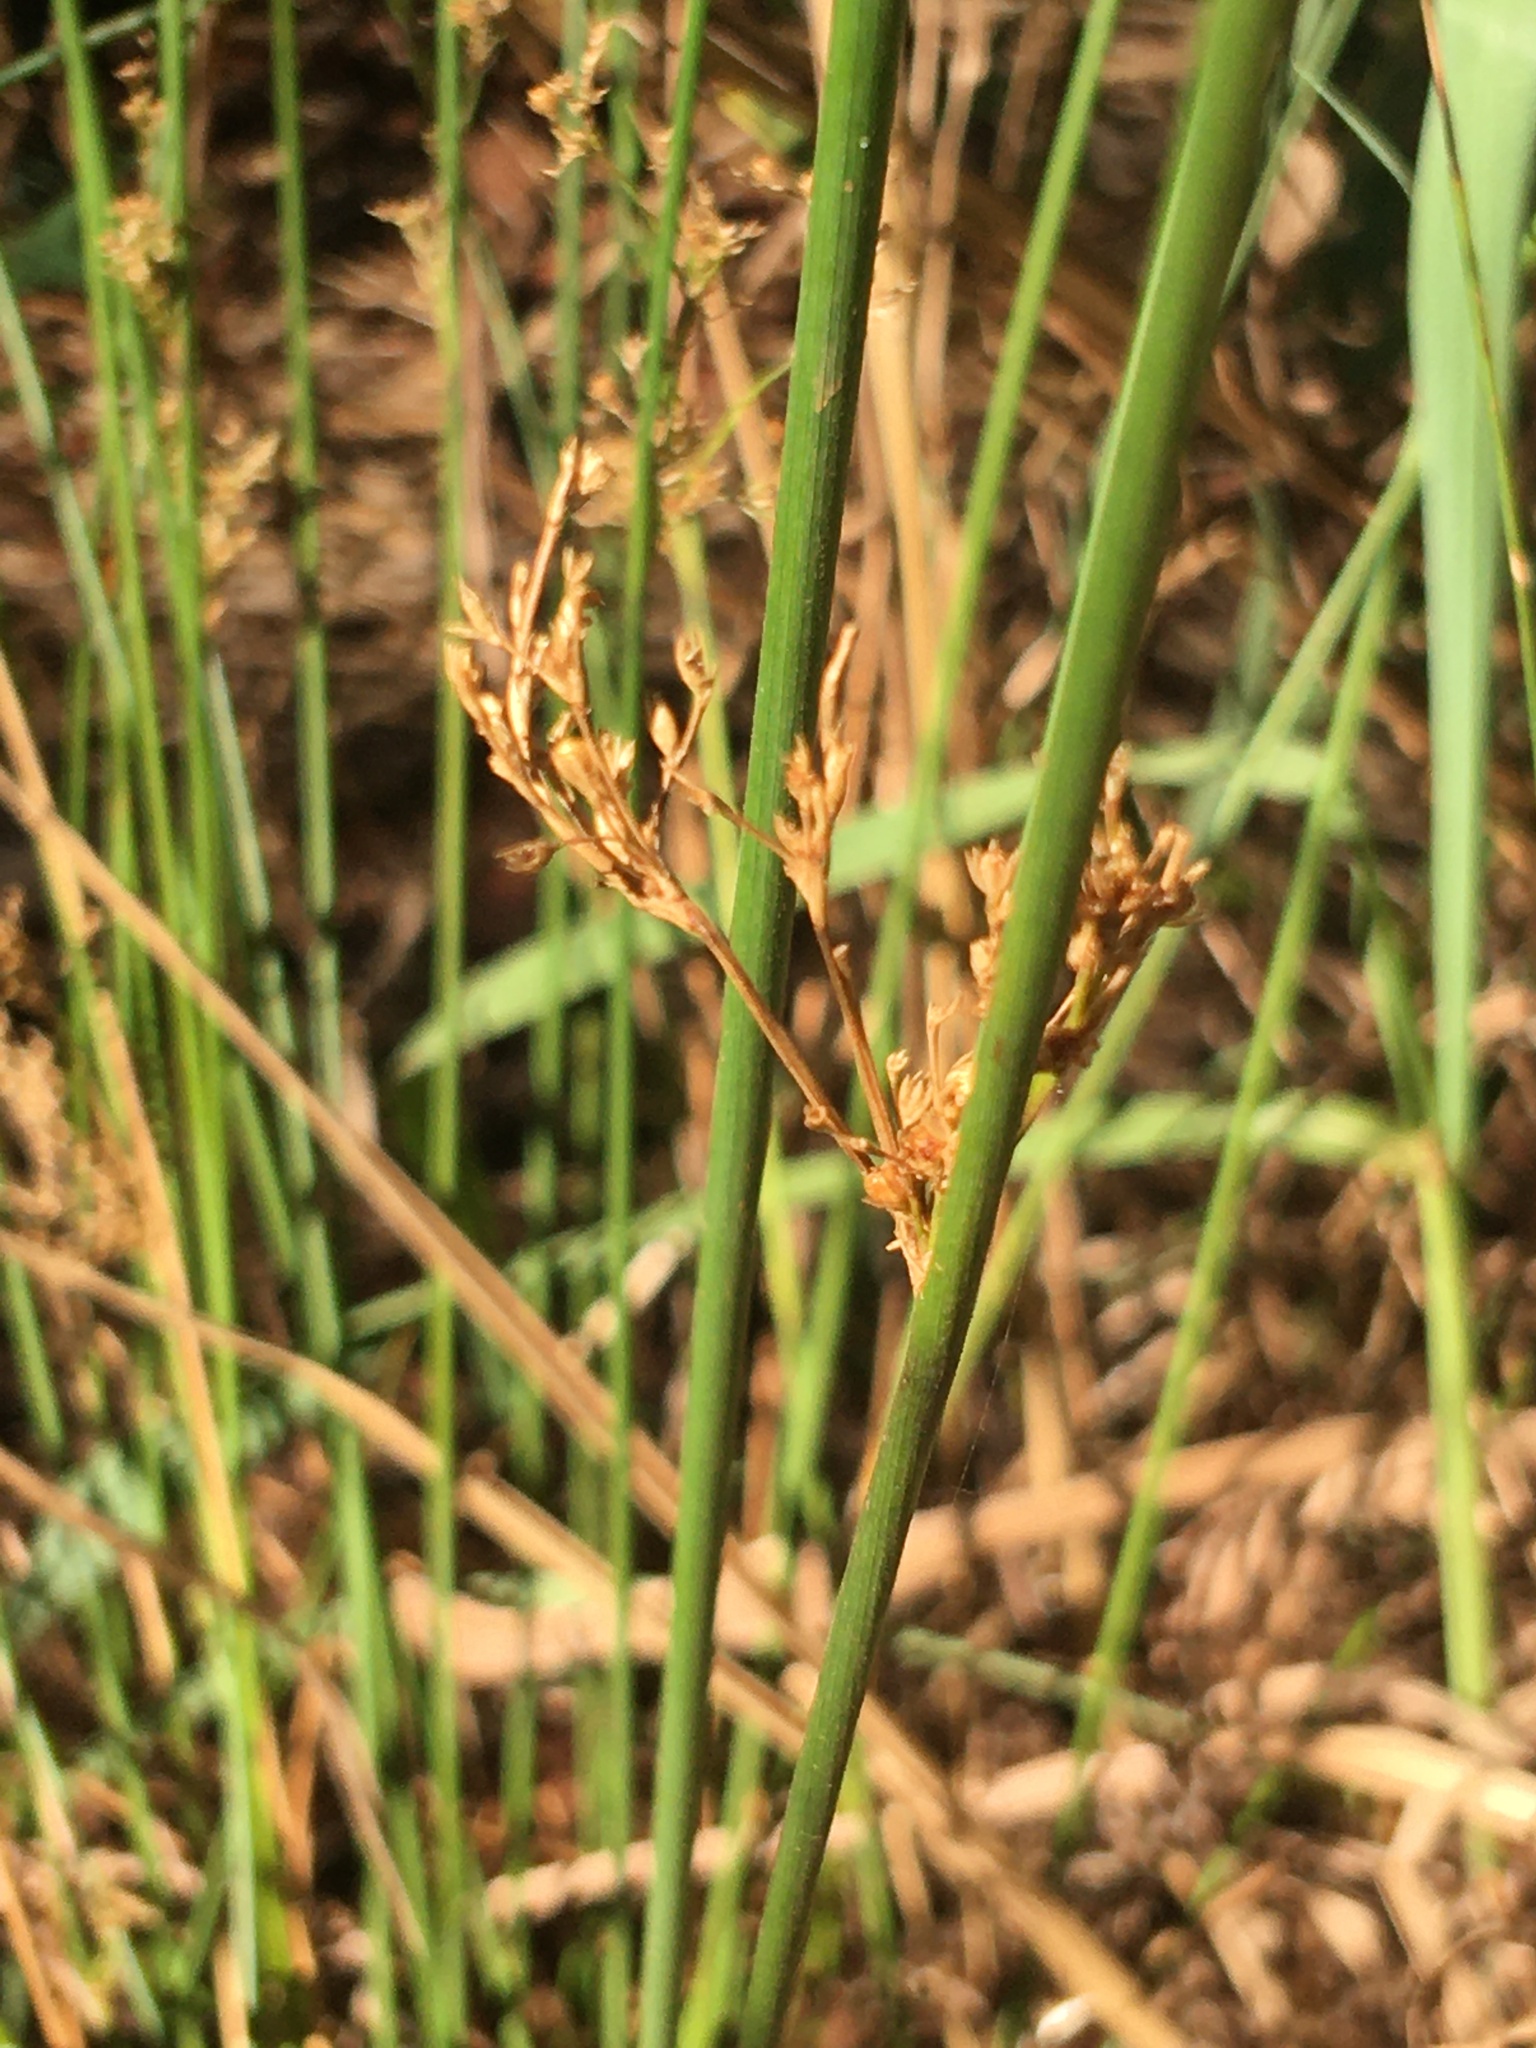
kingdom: Plantae
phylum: Tracheophyta
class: Liliopsida
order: Poales
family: Juncaceae
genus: Juncus
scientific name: Juncus effusus
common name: Soft rush
